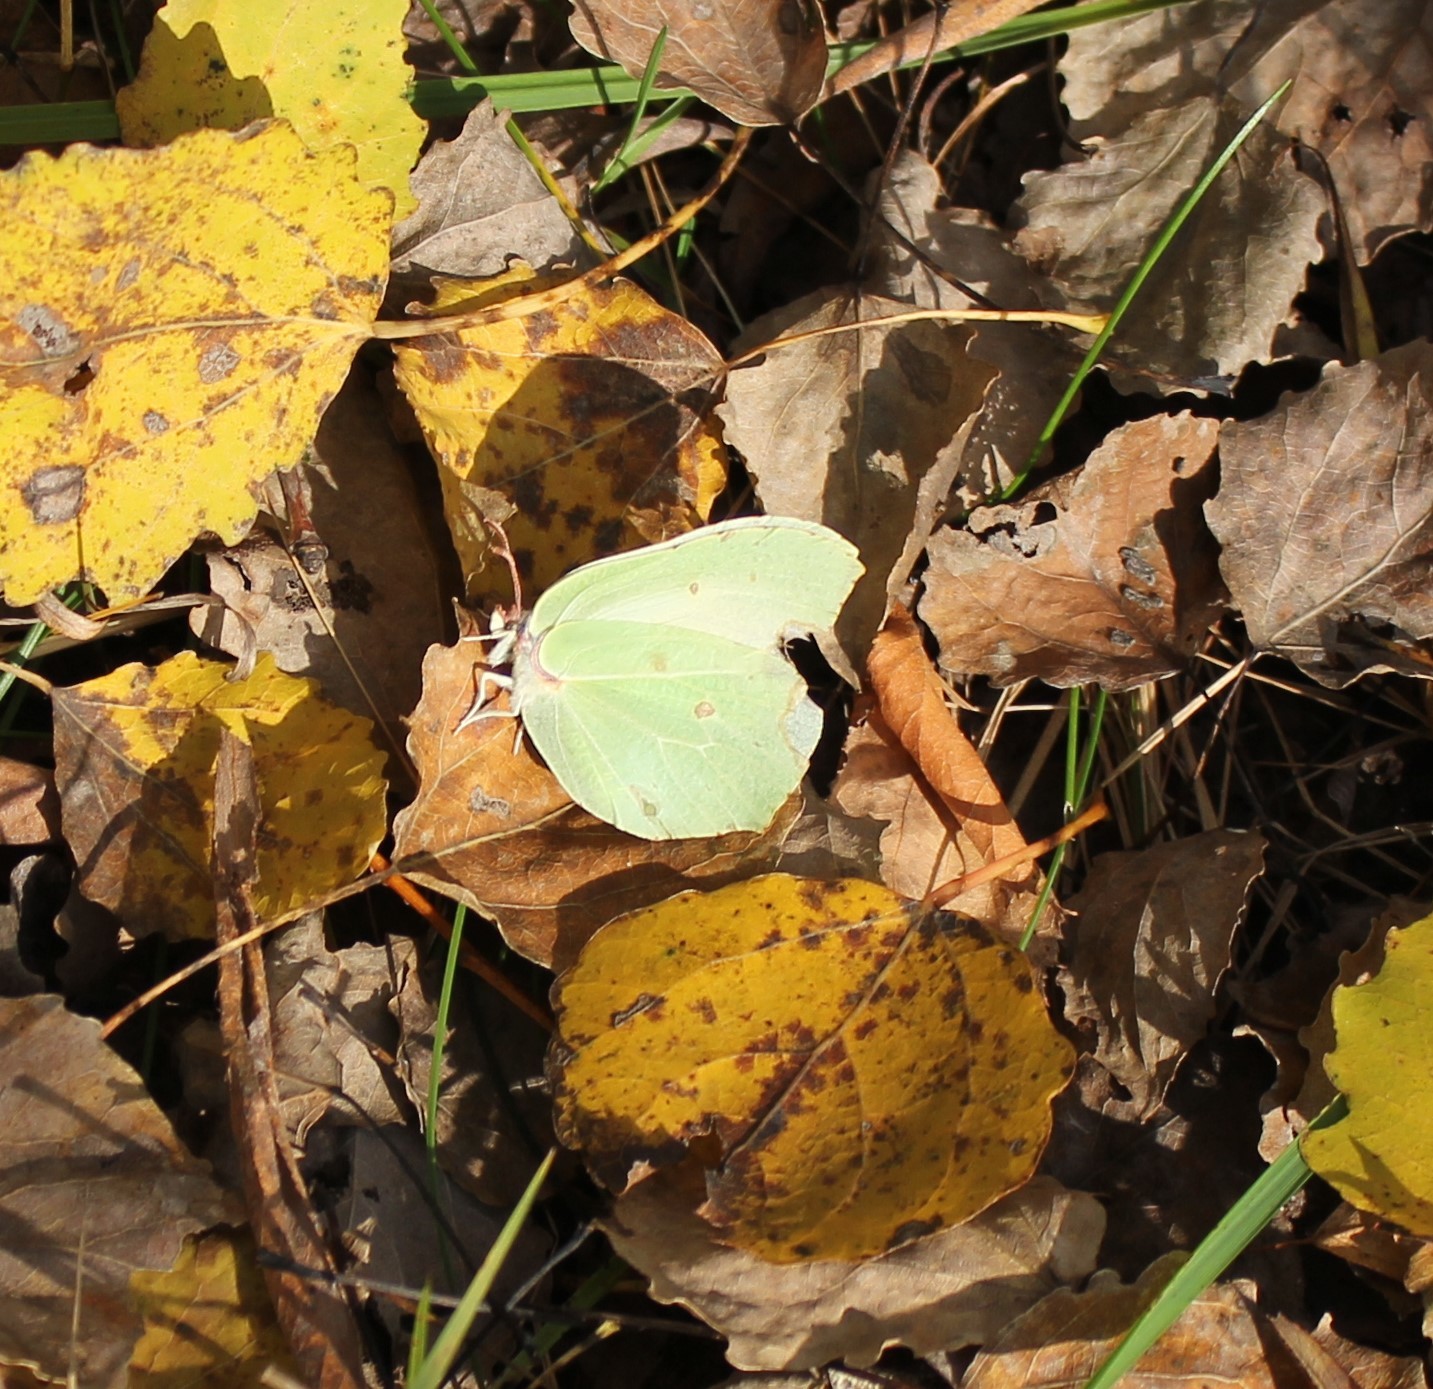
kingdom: Animalia
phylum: Arthropoda
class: Insecta
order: Lepidoptera
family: Pieridae
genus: Gonepteryx
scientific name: Gonepteryx rhamni
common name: Brimstone
